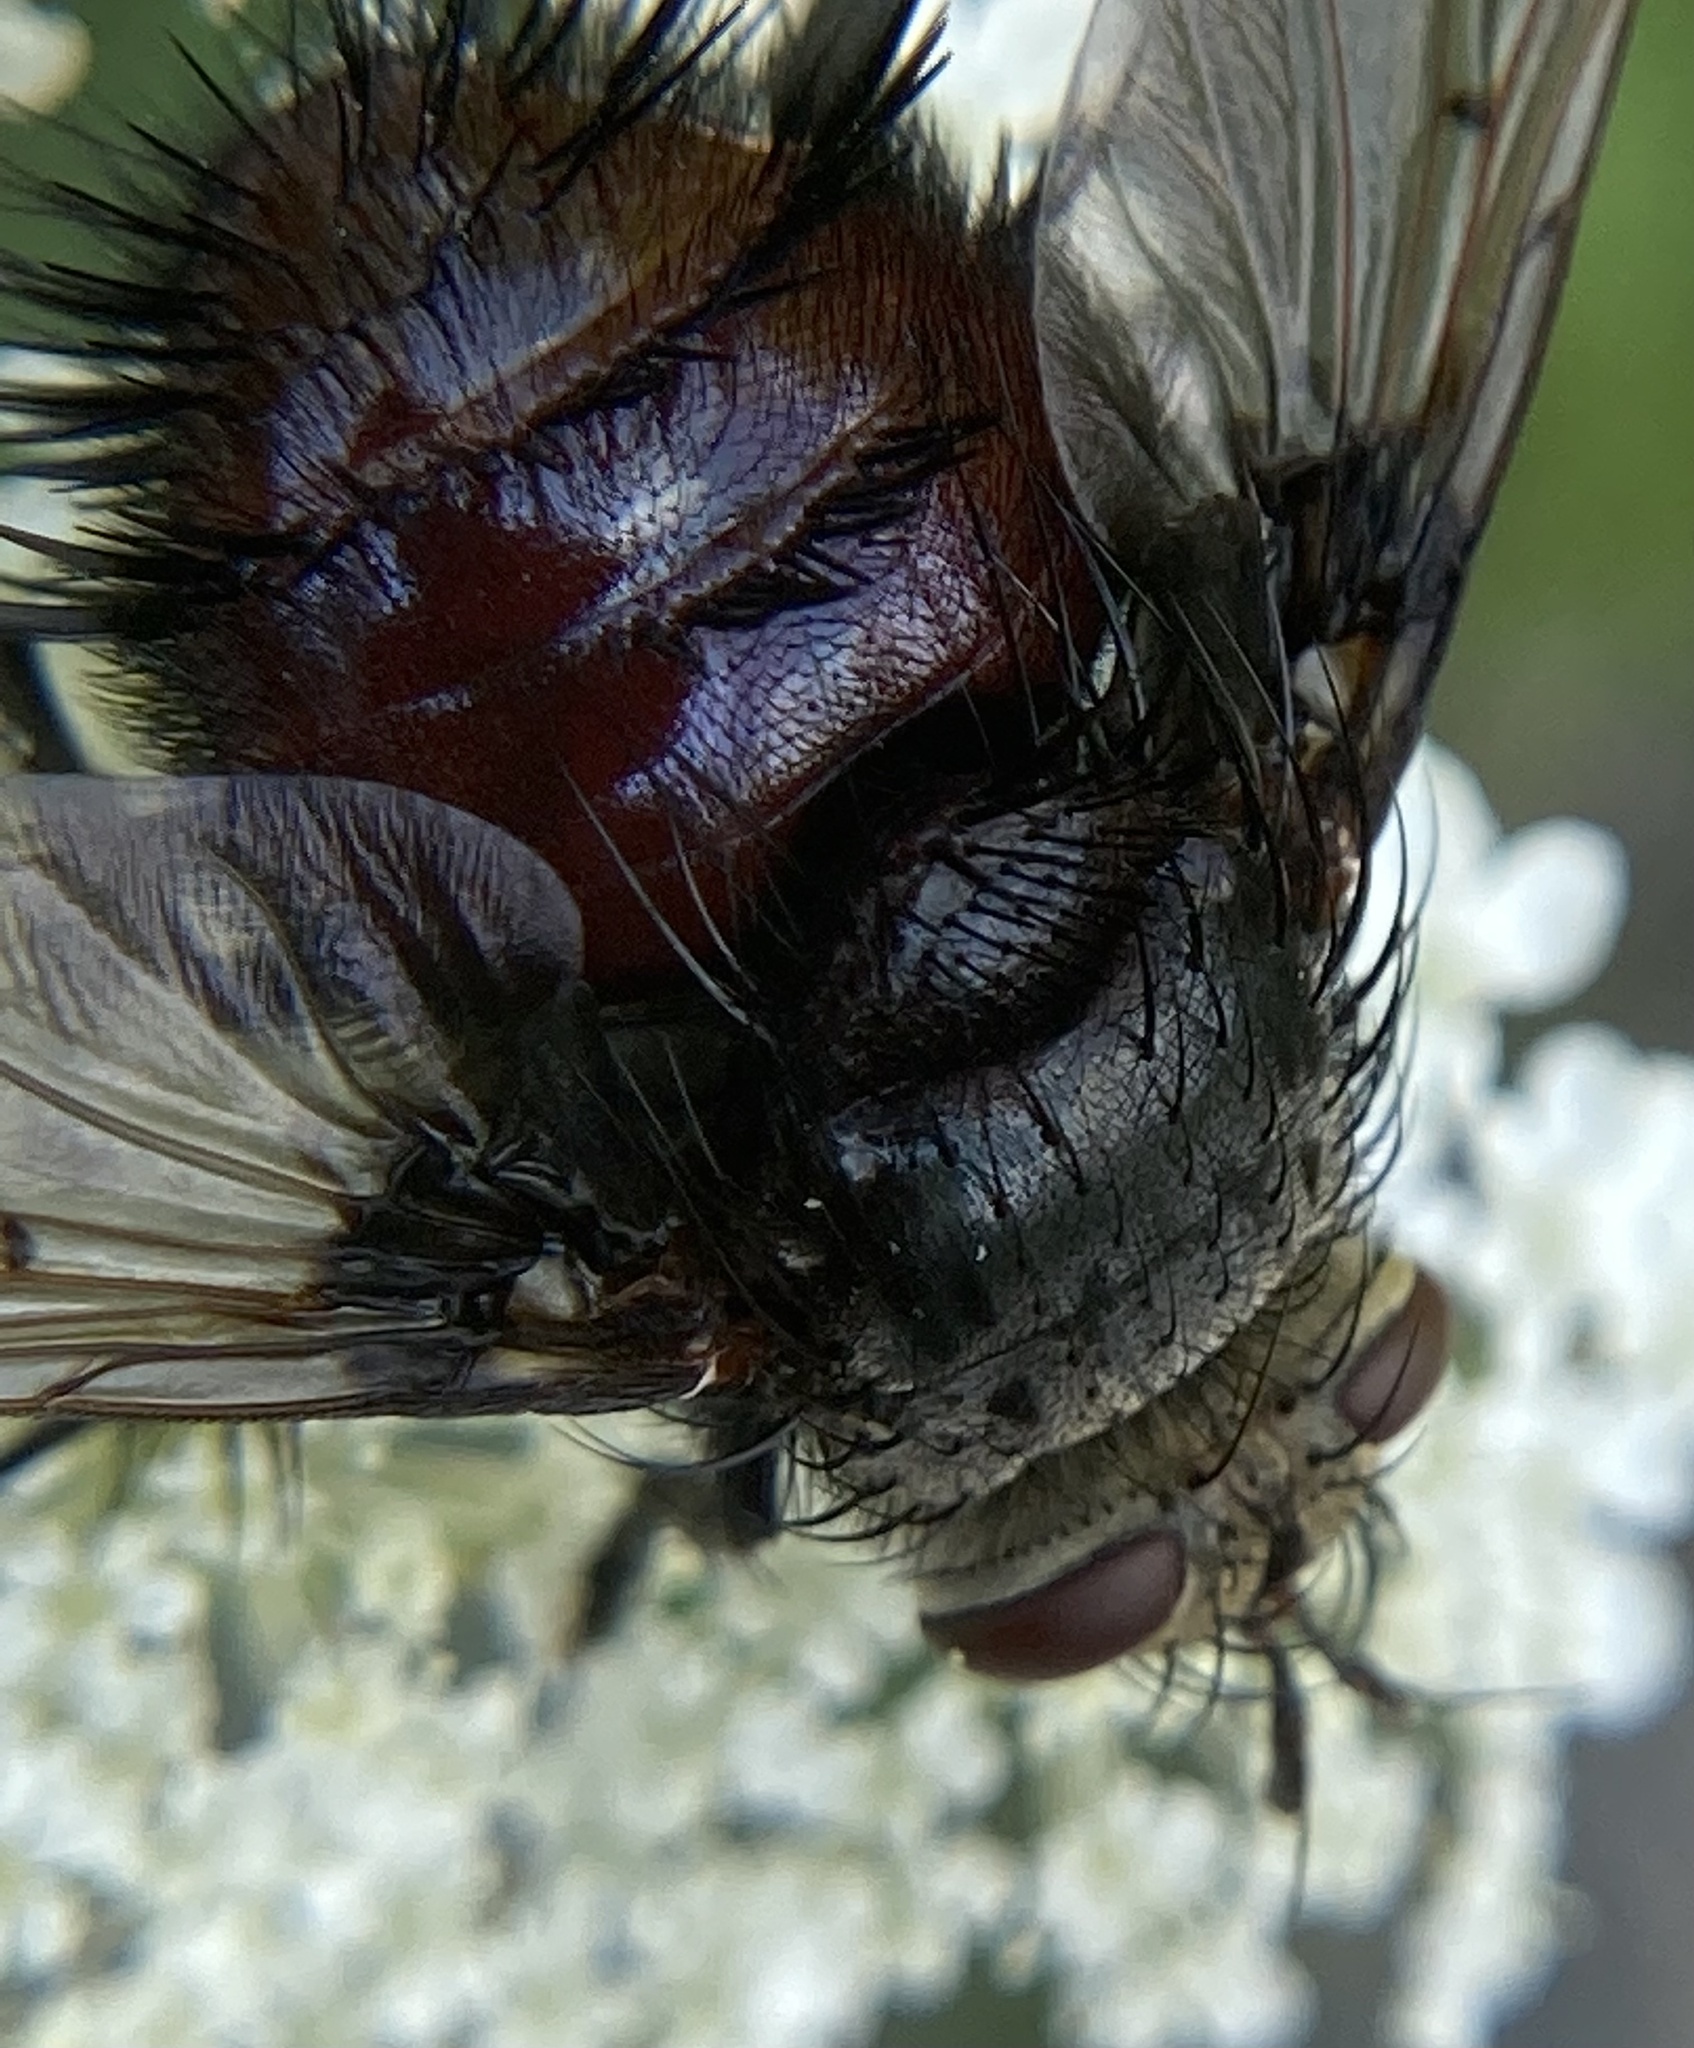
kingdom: Animalia
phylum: Arthropoda
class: Insecta
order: Diptera
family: Tachinidae
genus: Juriniopsis
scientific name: Juriniopsis adusta
